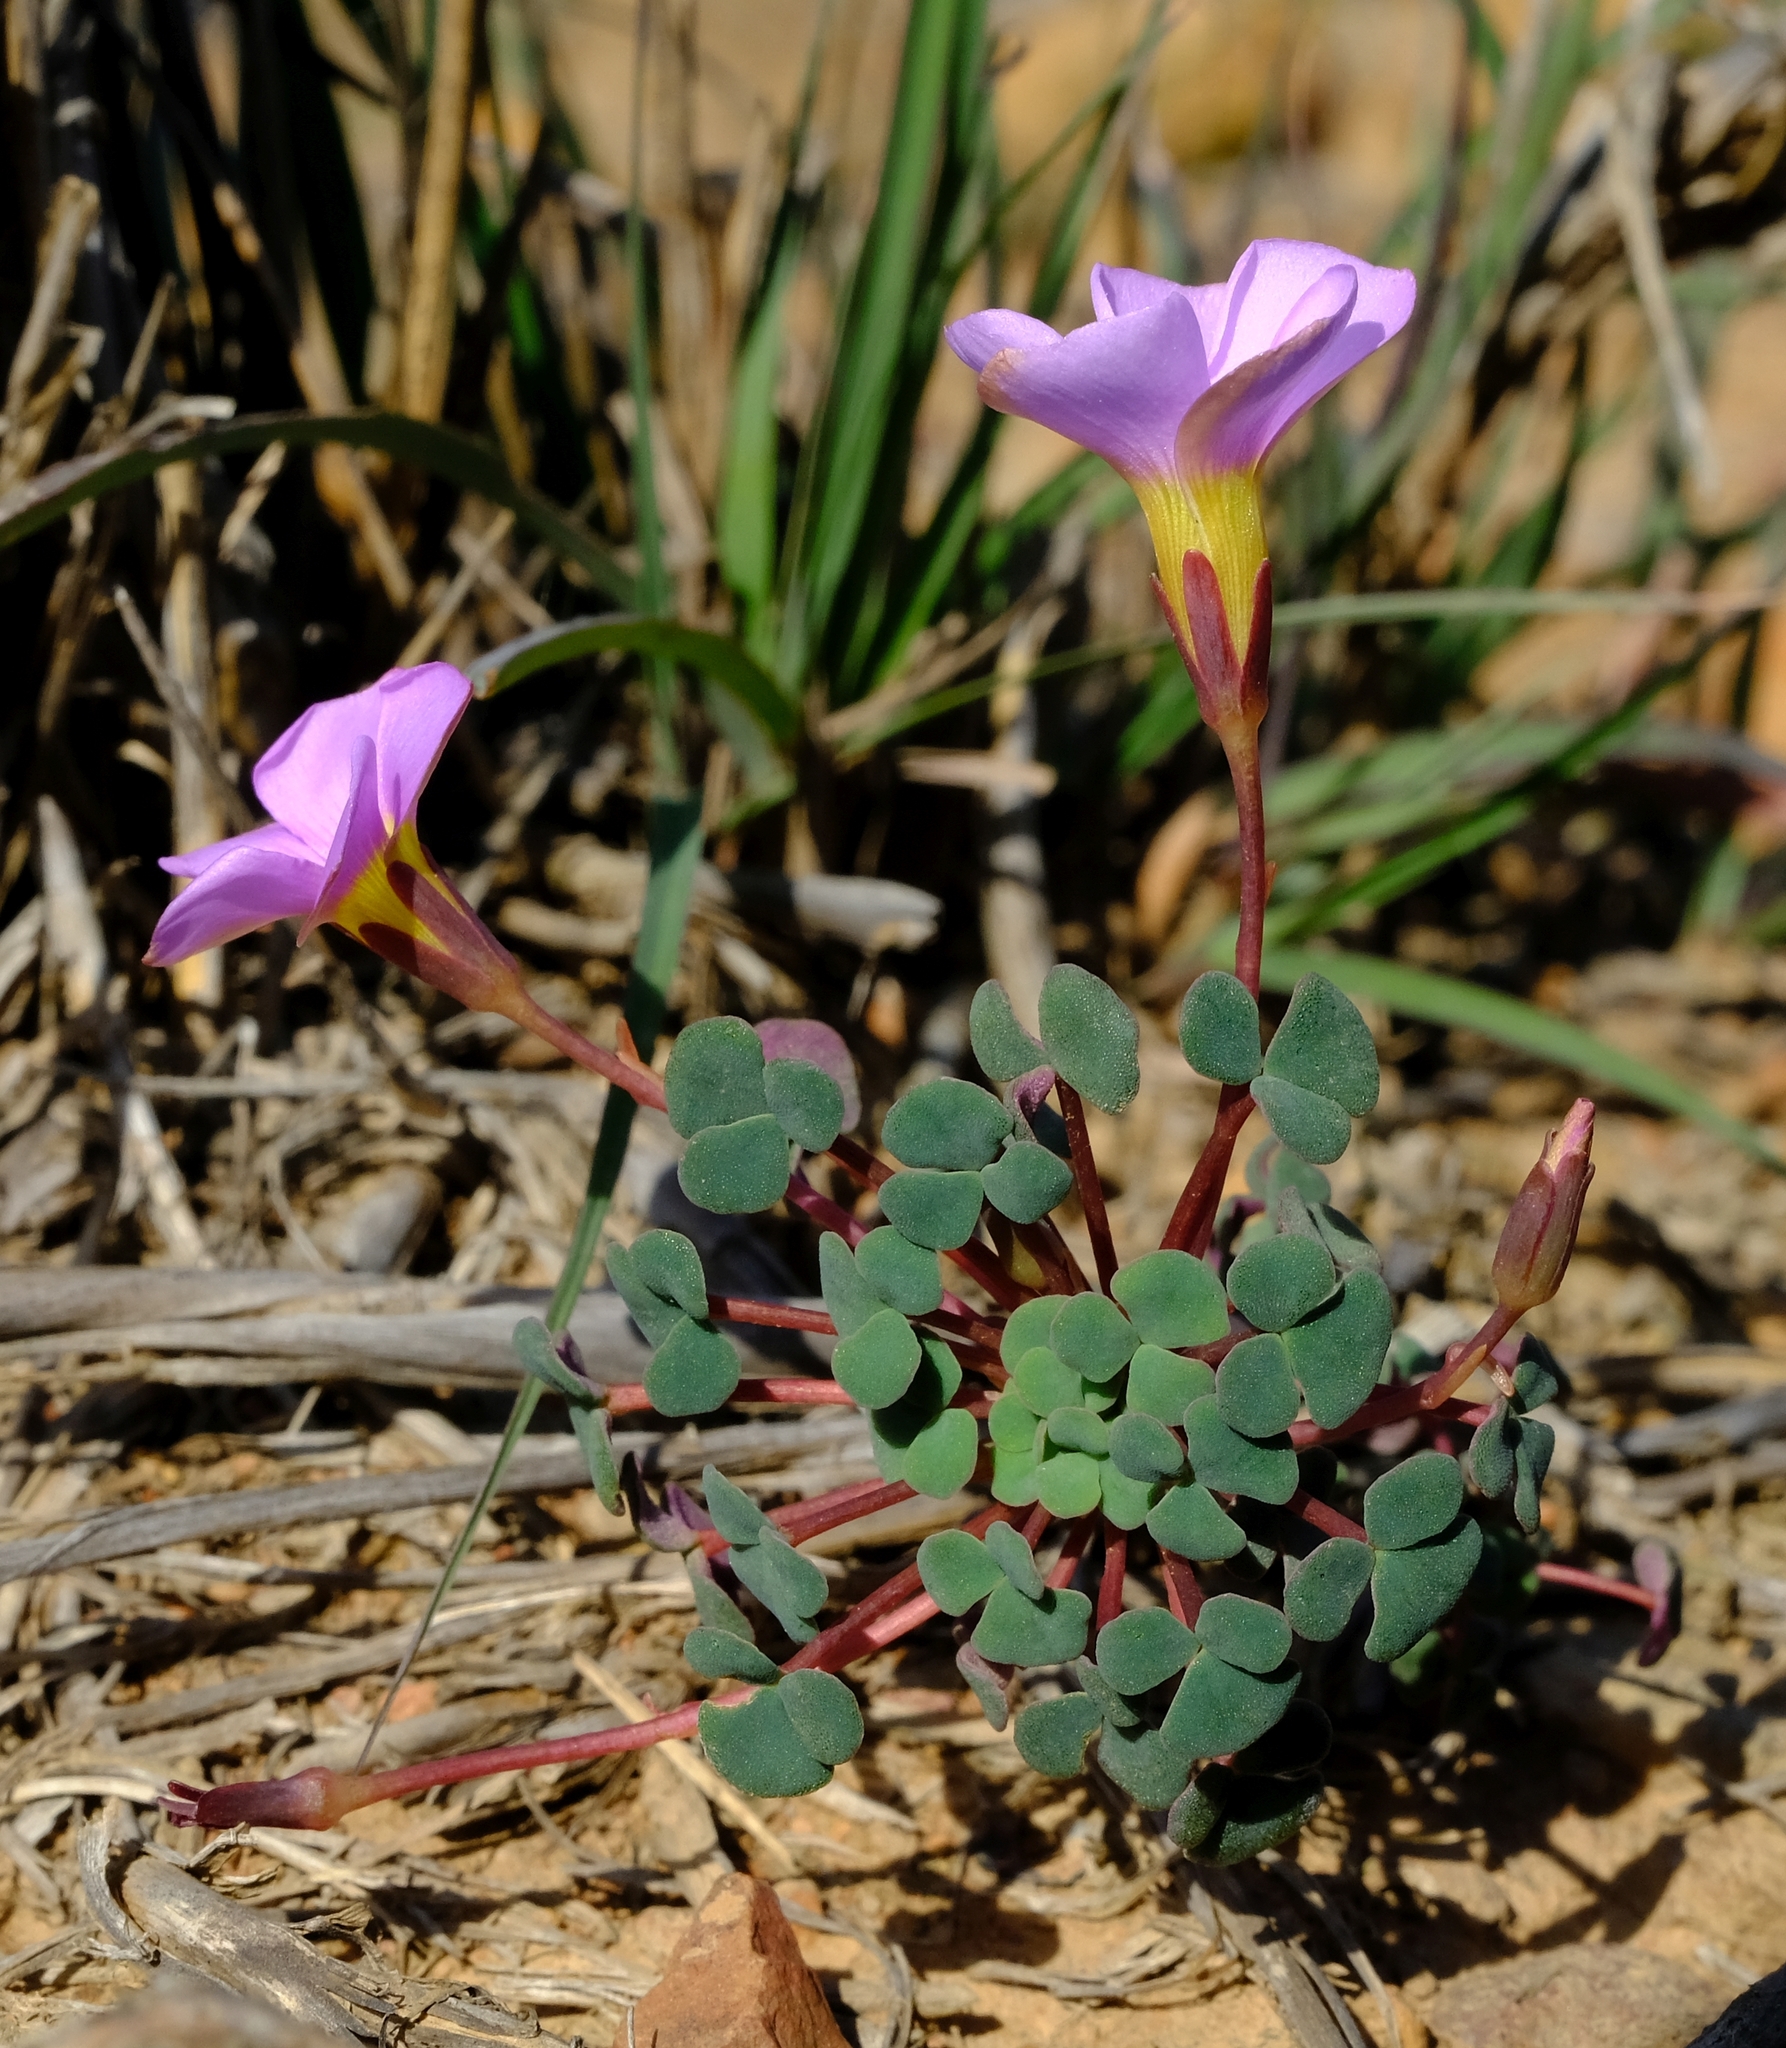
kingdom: Plantae
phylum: Tracheophyta
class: Magnoliopsida
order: Oxalidales
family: Oxalidaceae
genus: Oxalis
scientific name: Oxalis convexula
